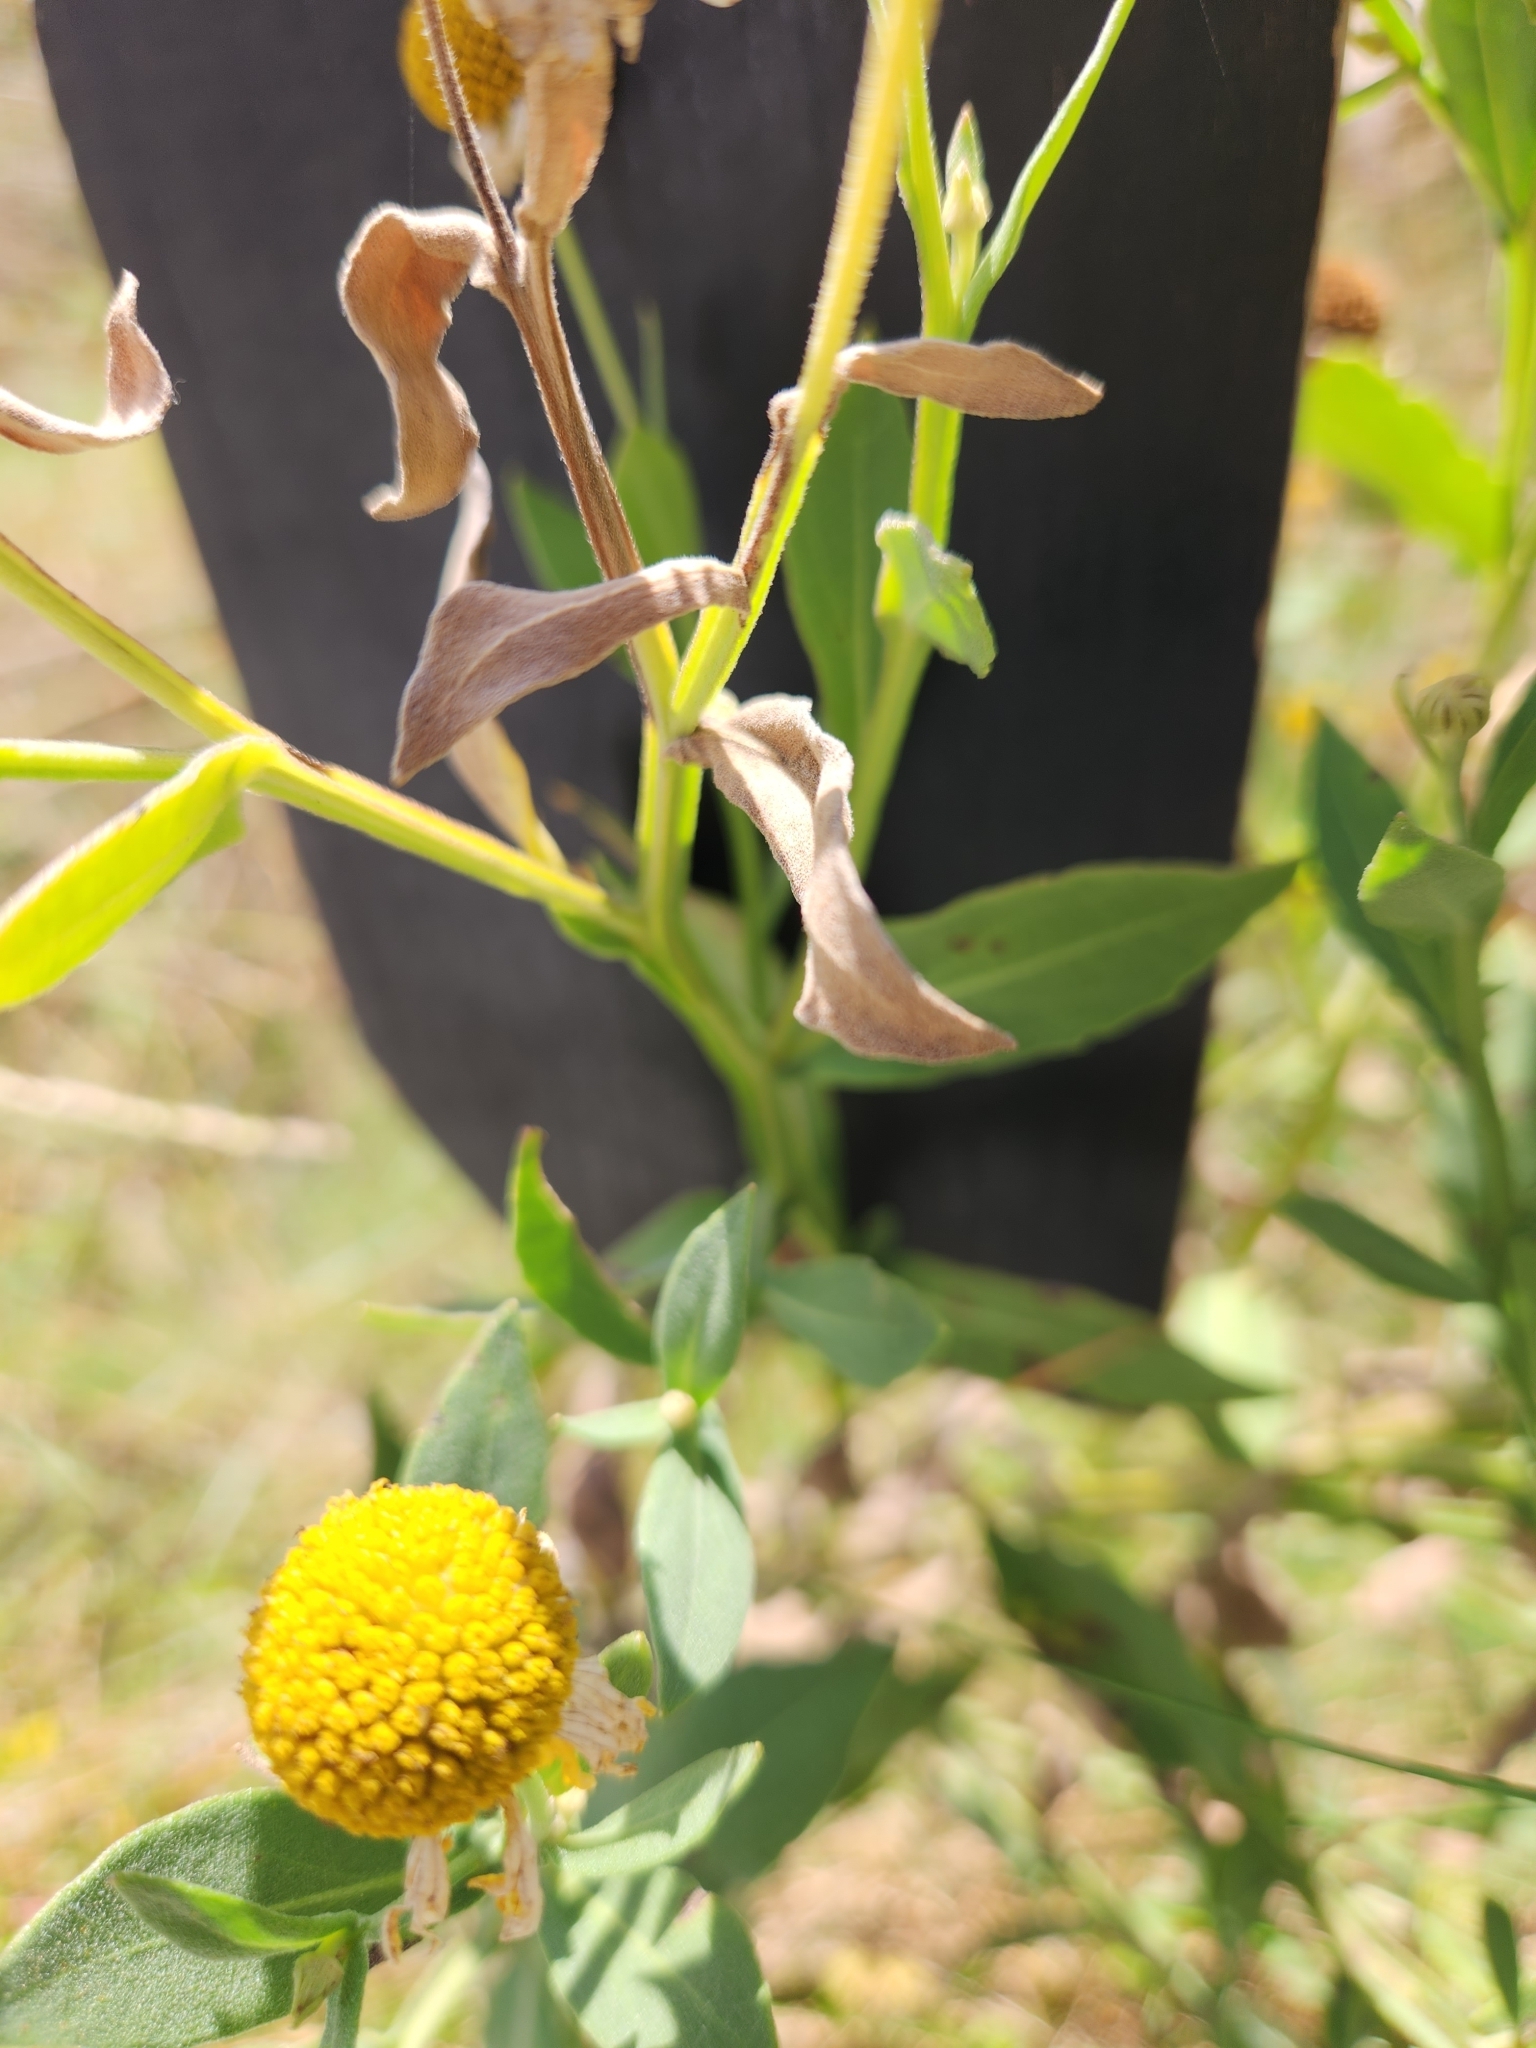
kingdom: Plantae
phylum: Tracheophyta
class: Magnoliopsida
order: Asterales
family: Asteraceae
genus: Helenium
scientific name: Helenium autumnale
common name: Sneezeweed
